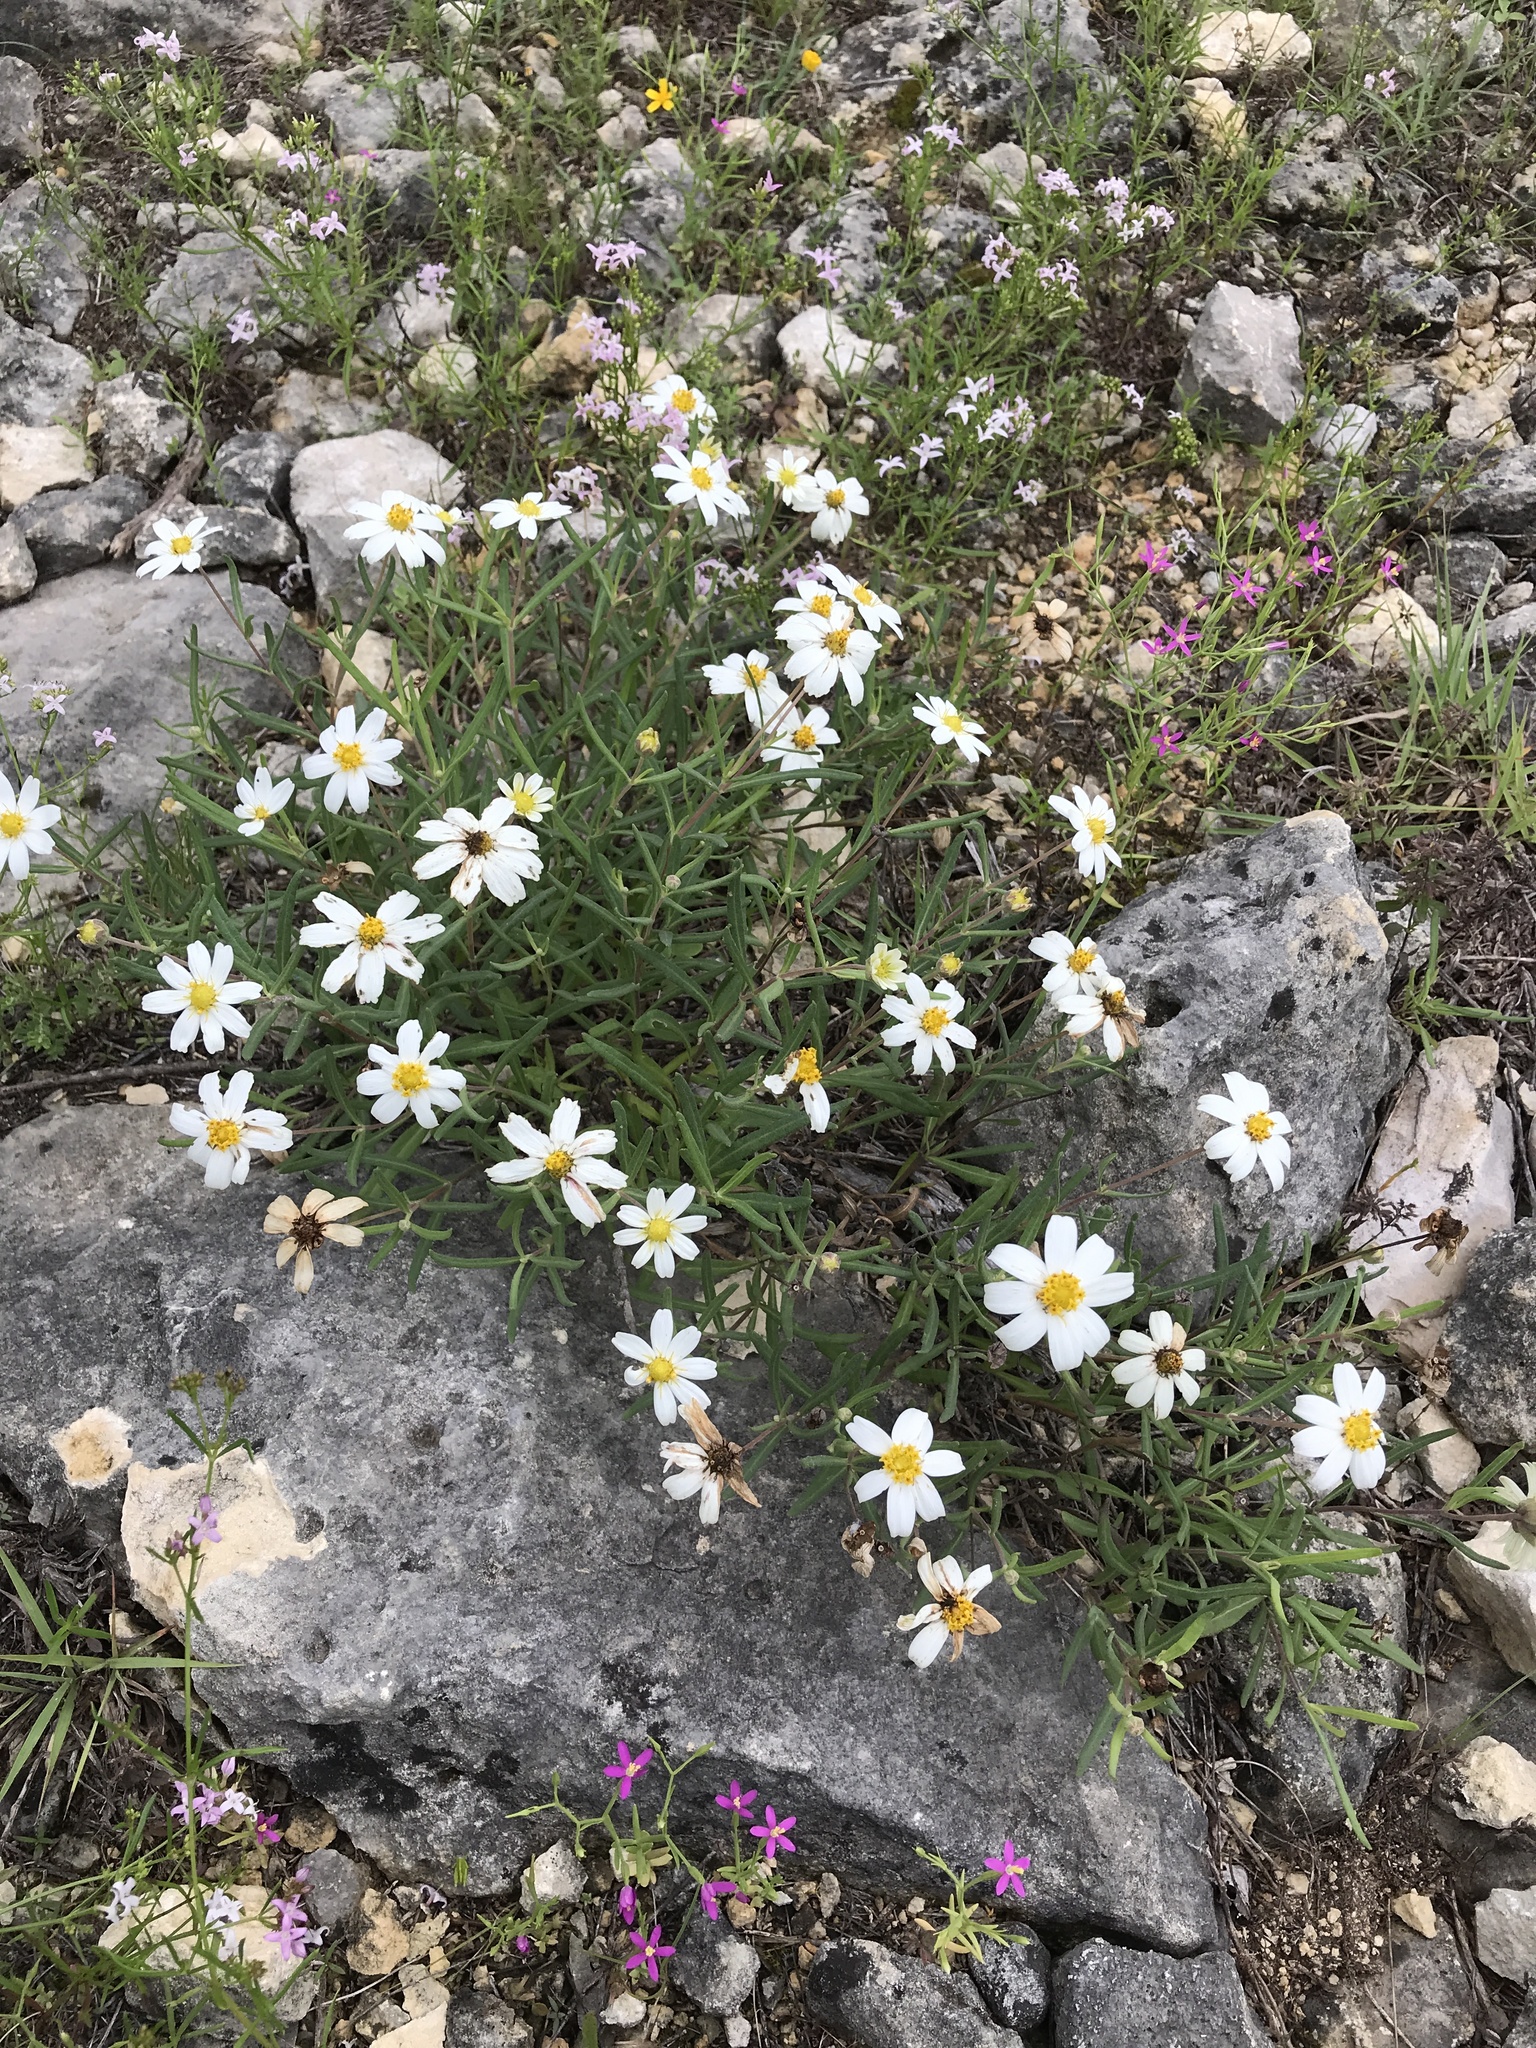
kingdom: Plantae
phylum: Tracheophyta
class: Magnoliopsida
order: Asterales
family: Asteraceae
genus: Melampodium
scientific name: Melampodium leucanthum
